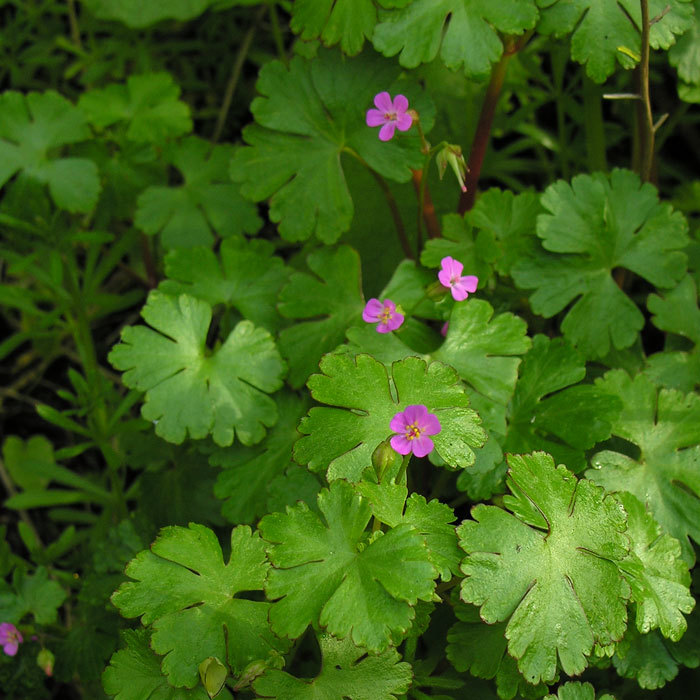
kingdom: Plantae
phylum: Tracheophyta
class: Magnoliopsida
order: Geraniales
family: Geraniaceae
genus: Geranium
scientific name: Geranium lucidum
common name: Shining crane's-bill
